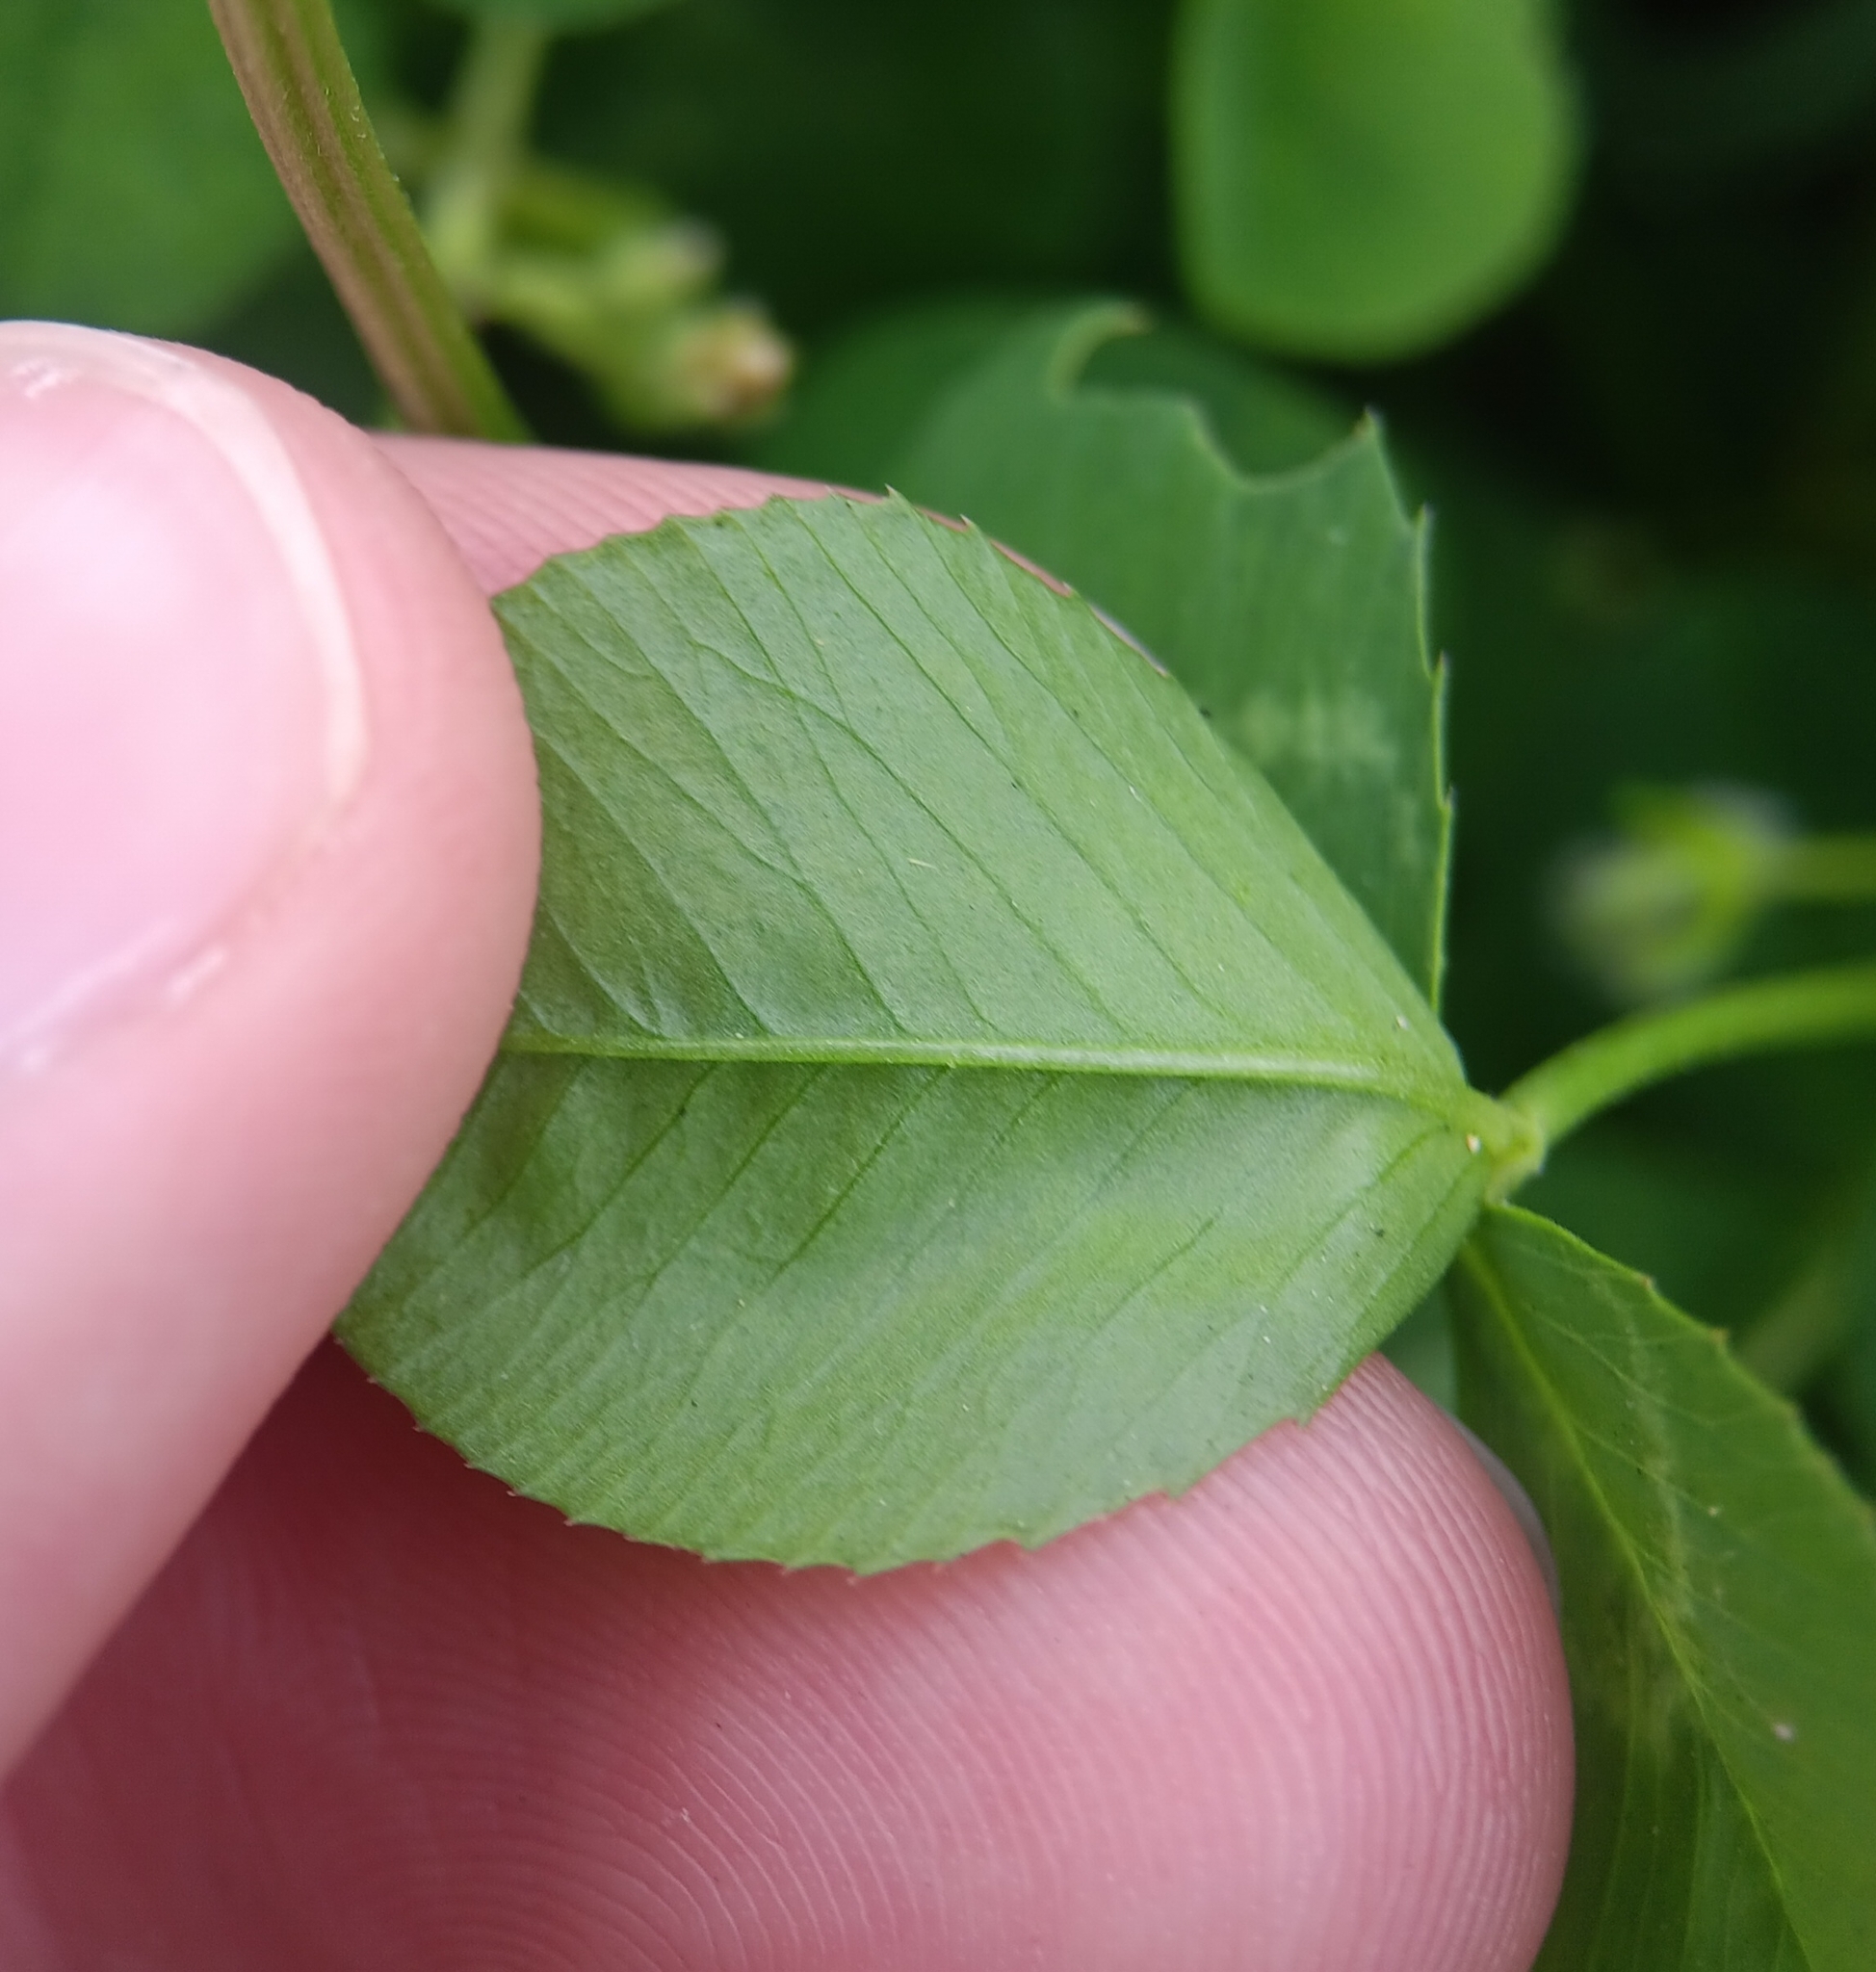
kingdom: Plantae
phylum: Tracheophyta
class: Magnoliopsida
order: Fabales
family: Fabaceae
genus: Trifolium
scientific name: Trifolium repens
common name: White clover
